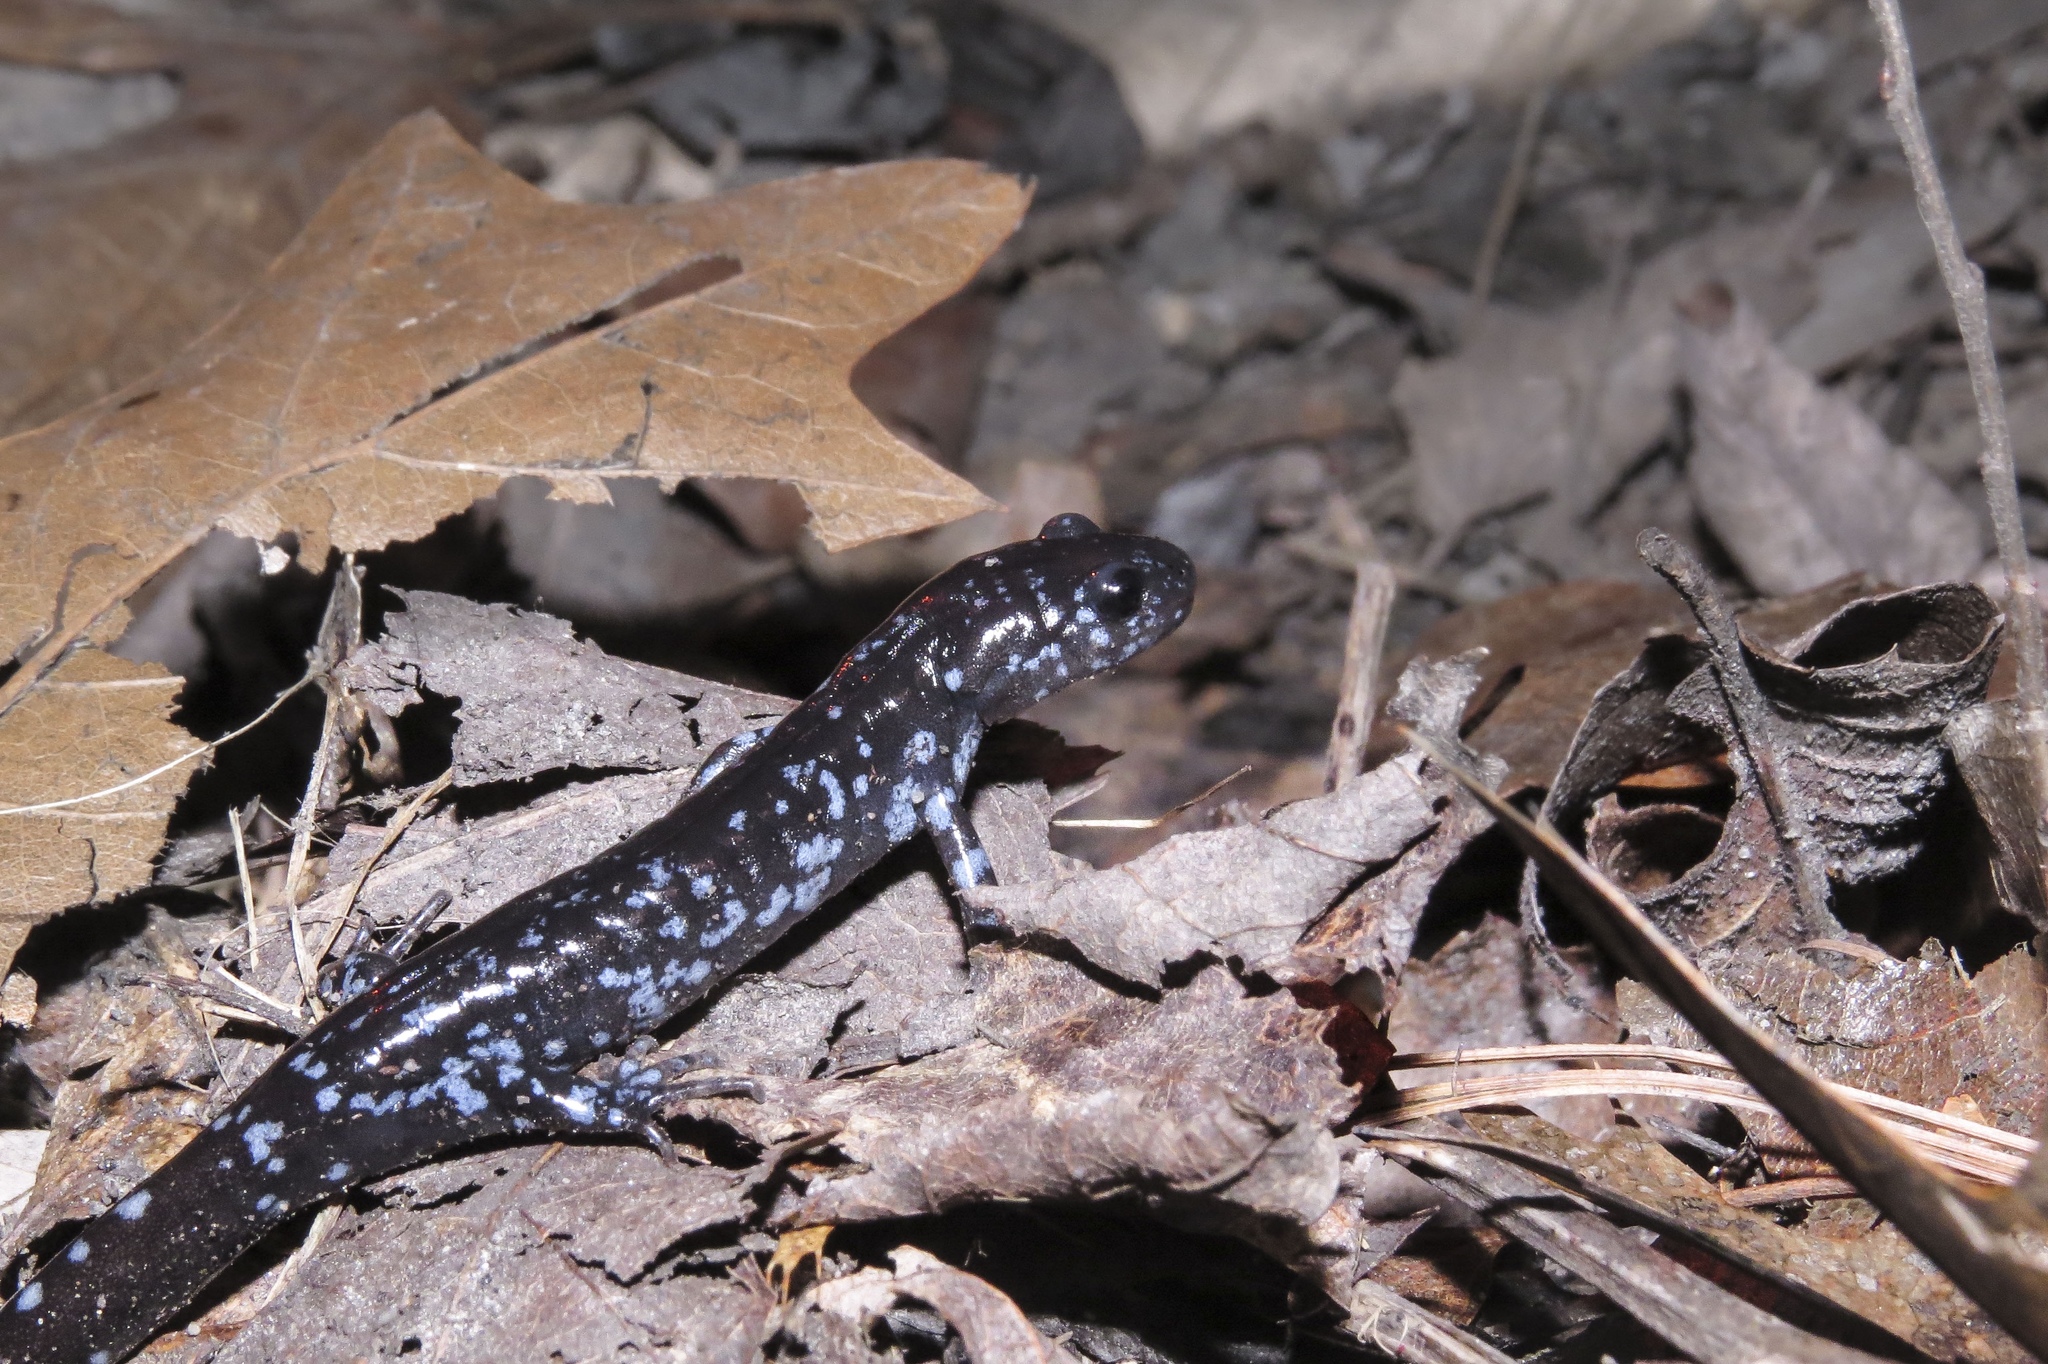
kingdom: Animalia
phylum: Chordata
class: Amphibia
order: Caudata
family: Ambystomatidae
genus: Ambystoma
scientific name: Ambystoma laterale
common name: Blue-spotted salamander
